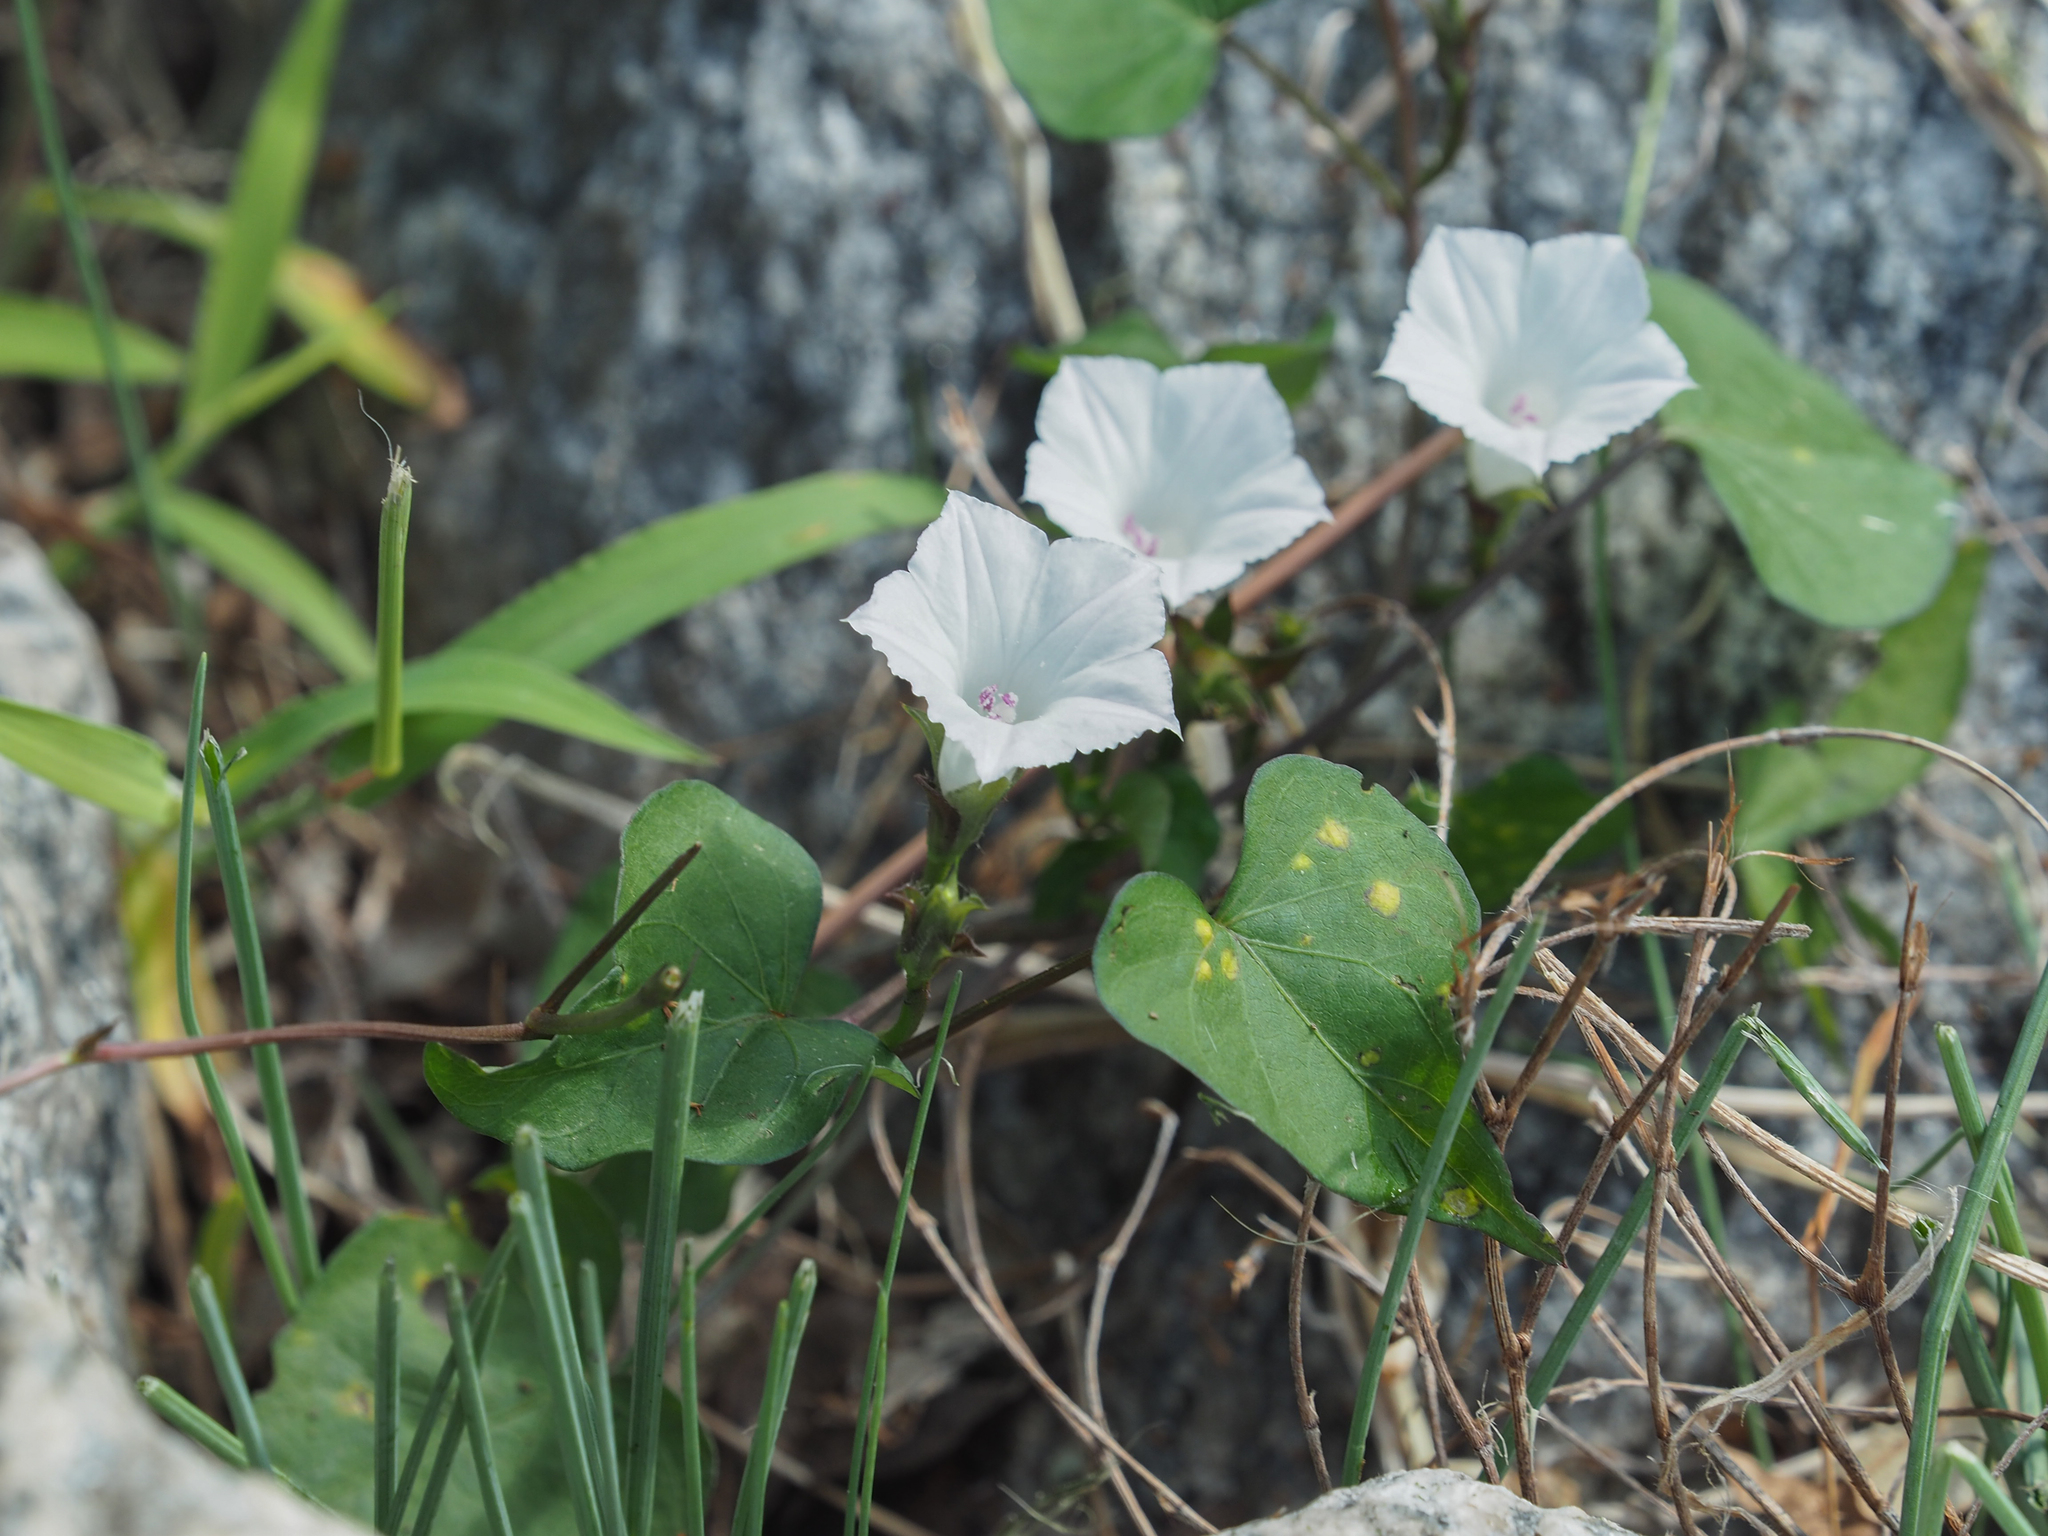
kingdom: Plantae
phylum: Tracheophyta
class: Magnoliopsida
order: Solanales
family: Convolvulaceae
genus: Ipomoea
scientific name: Ipomoea lacunosa
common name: White morning-glory
